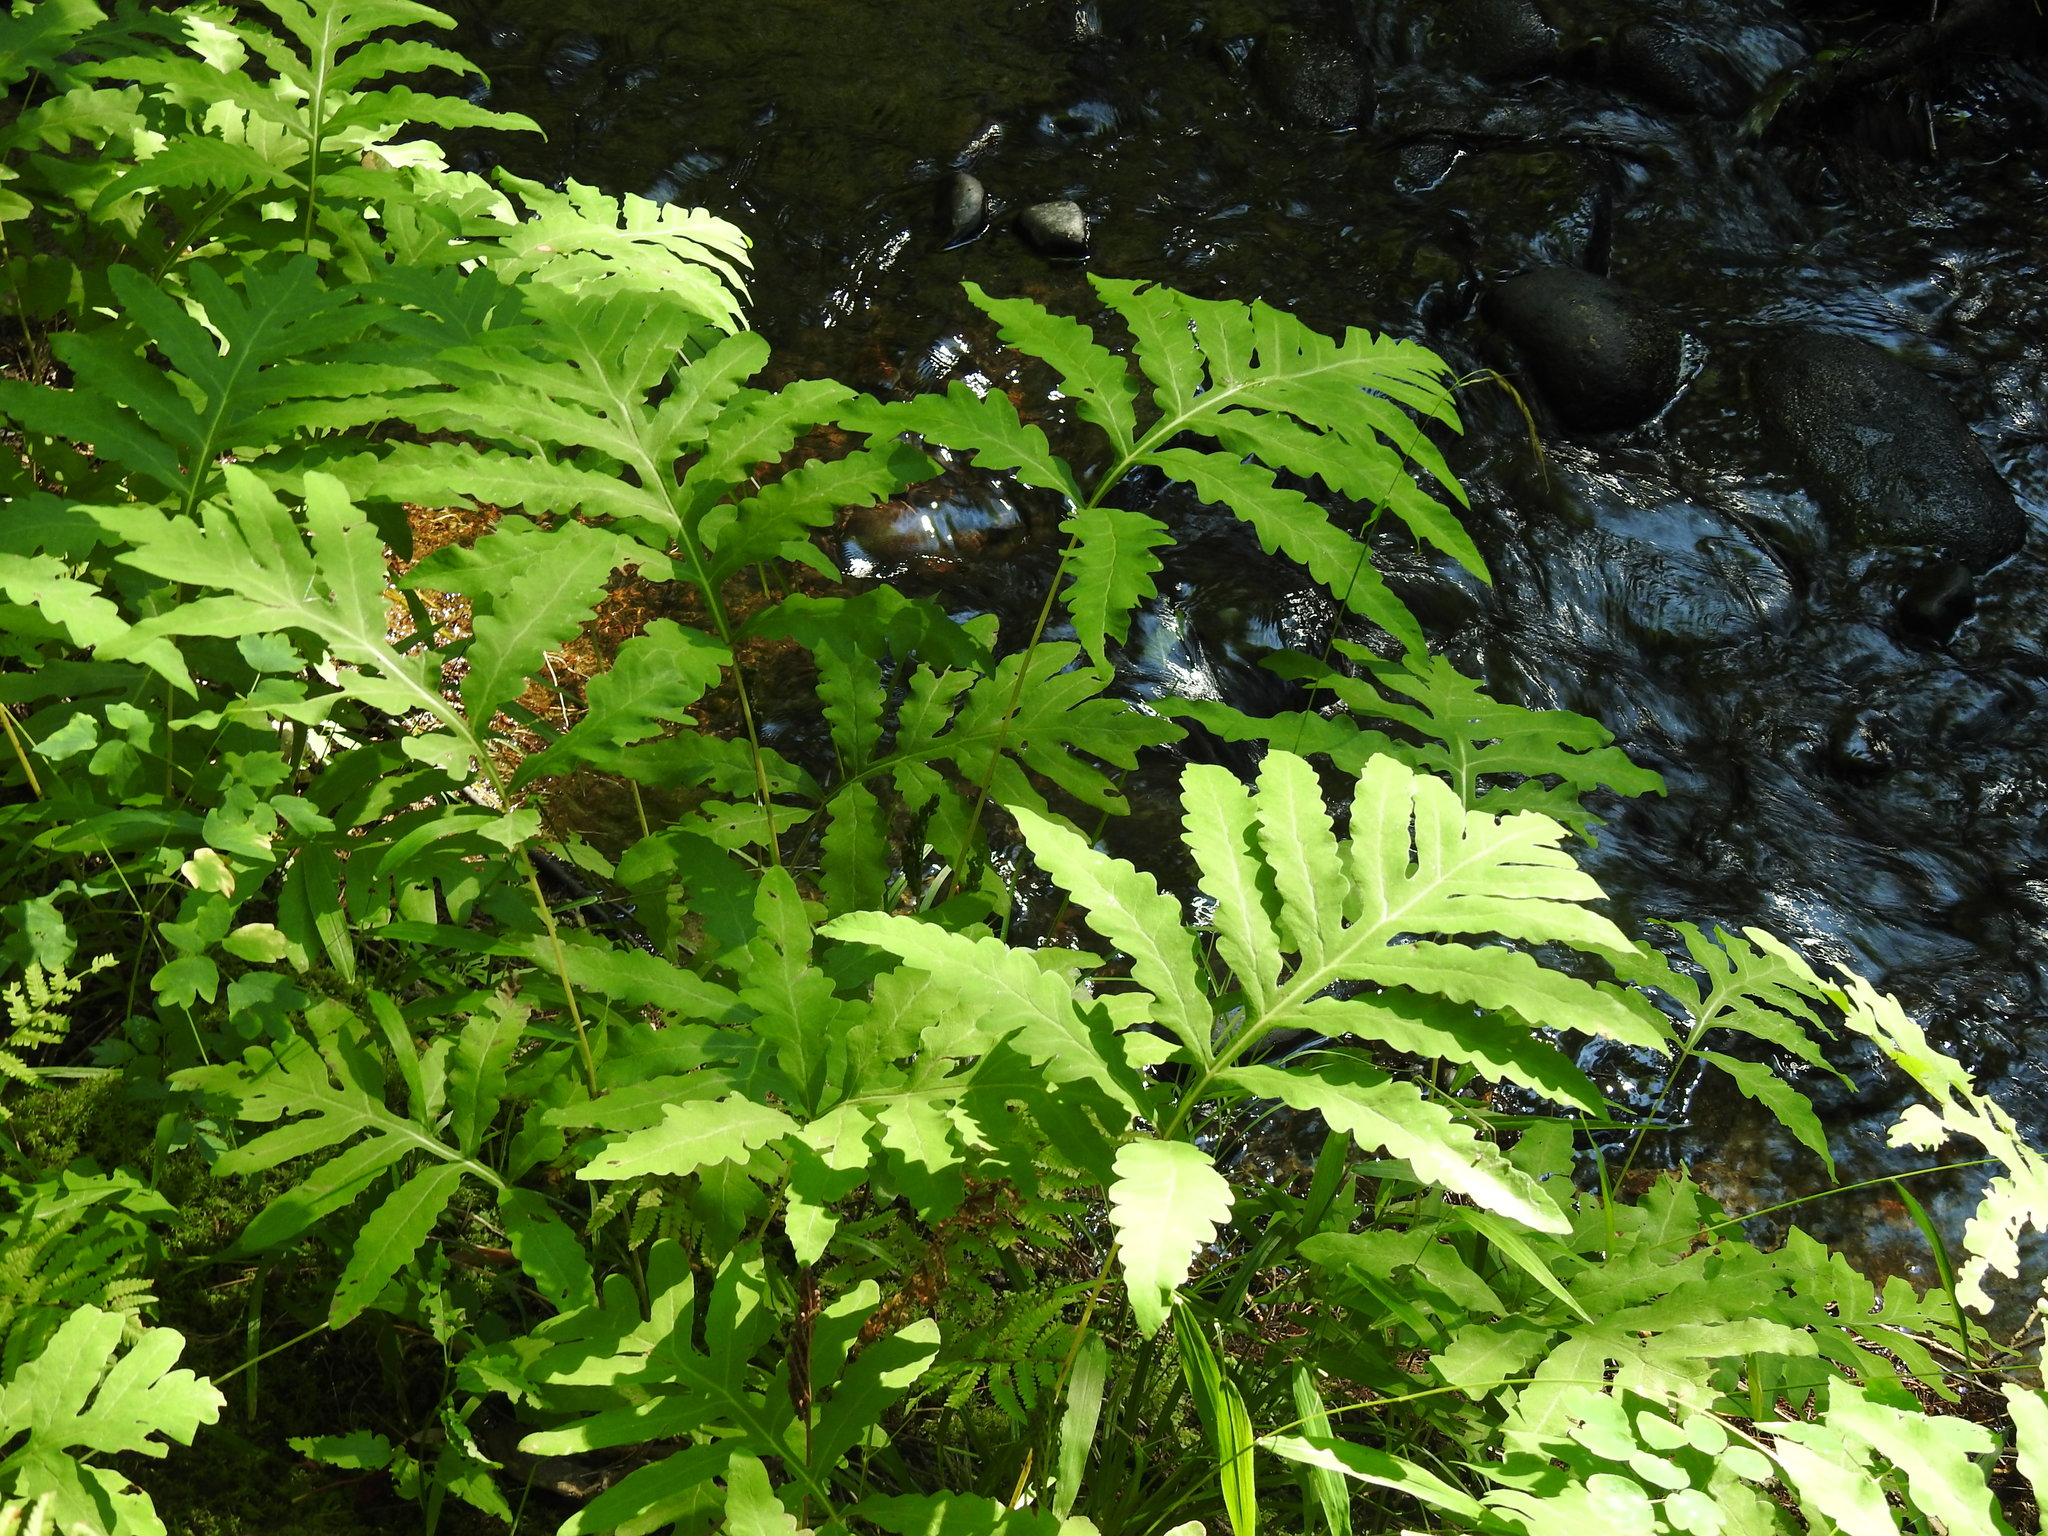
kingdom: Plantae
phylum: Tracheophyta
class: Polypodiopsida
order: Polypodiales
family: Onocleaceae
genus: Onoclea
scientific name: Onoclea sensibilis
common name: Sensitive fern
